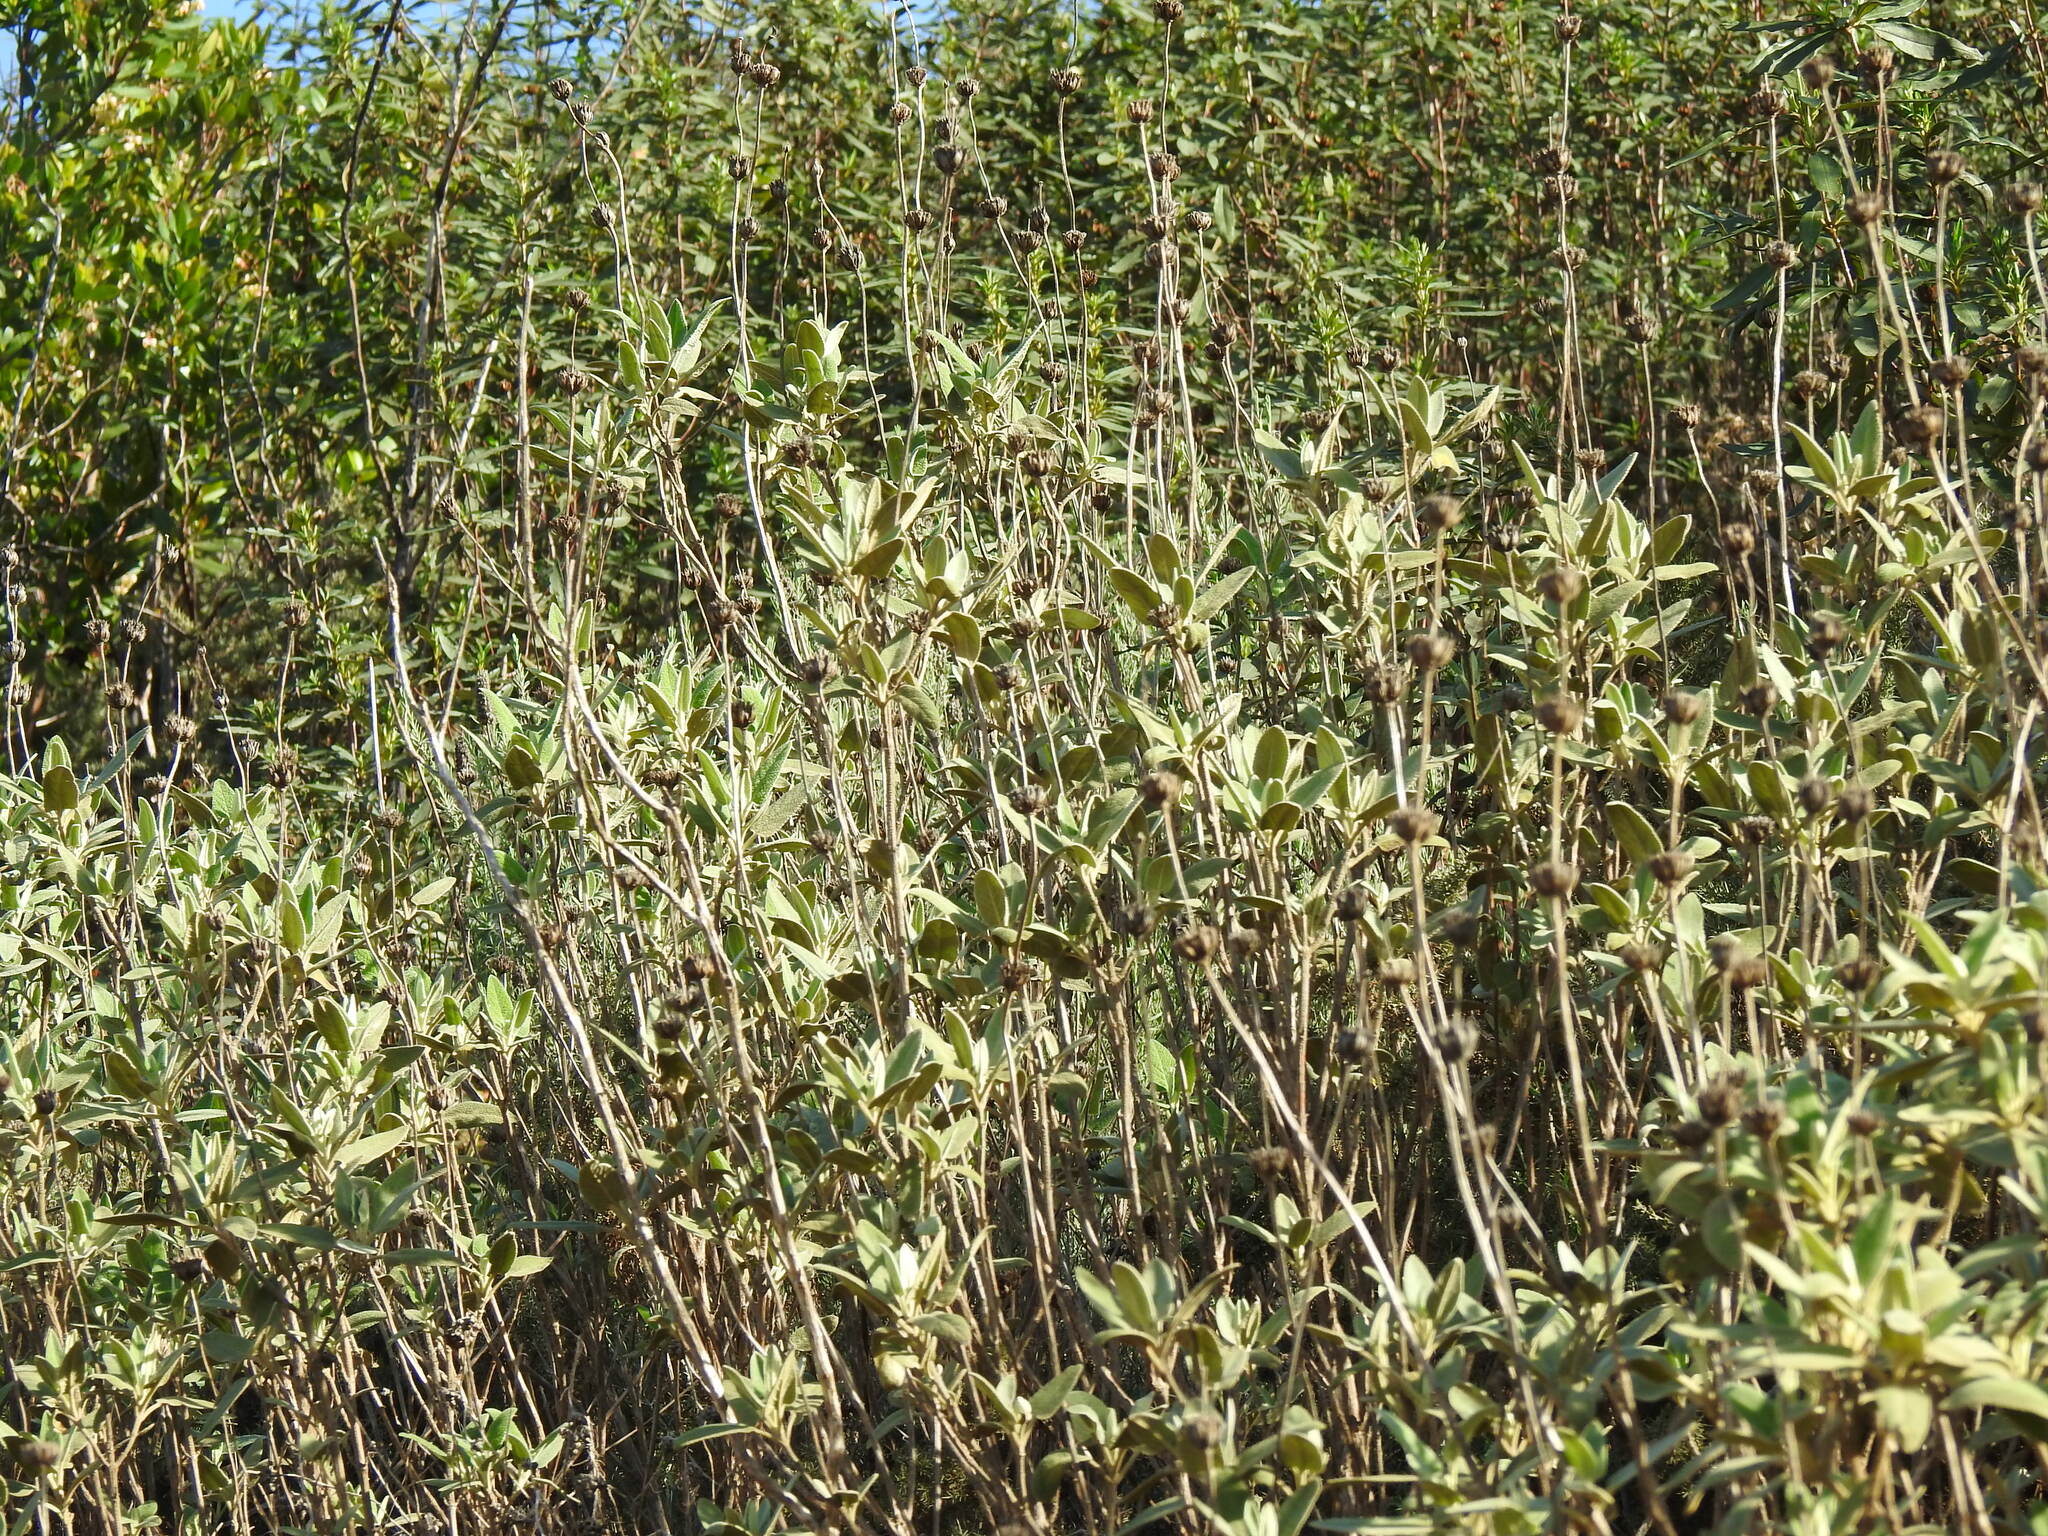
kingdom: Plantae
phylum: Tracheophyta
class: Magnoliopsida
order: Lamiales
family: Lamiaceae
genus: Phlomis
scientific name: Phlomis purpurea
